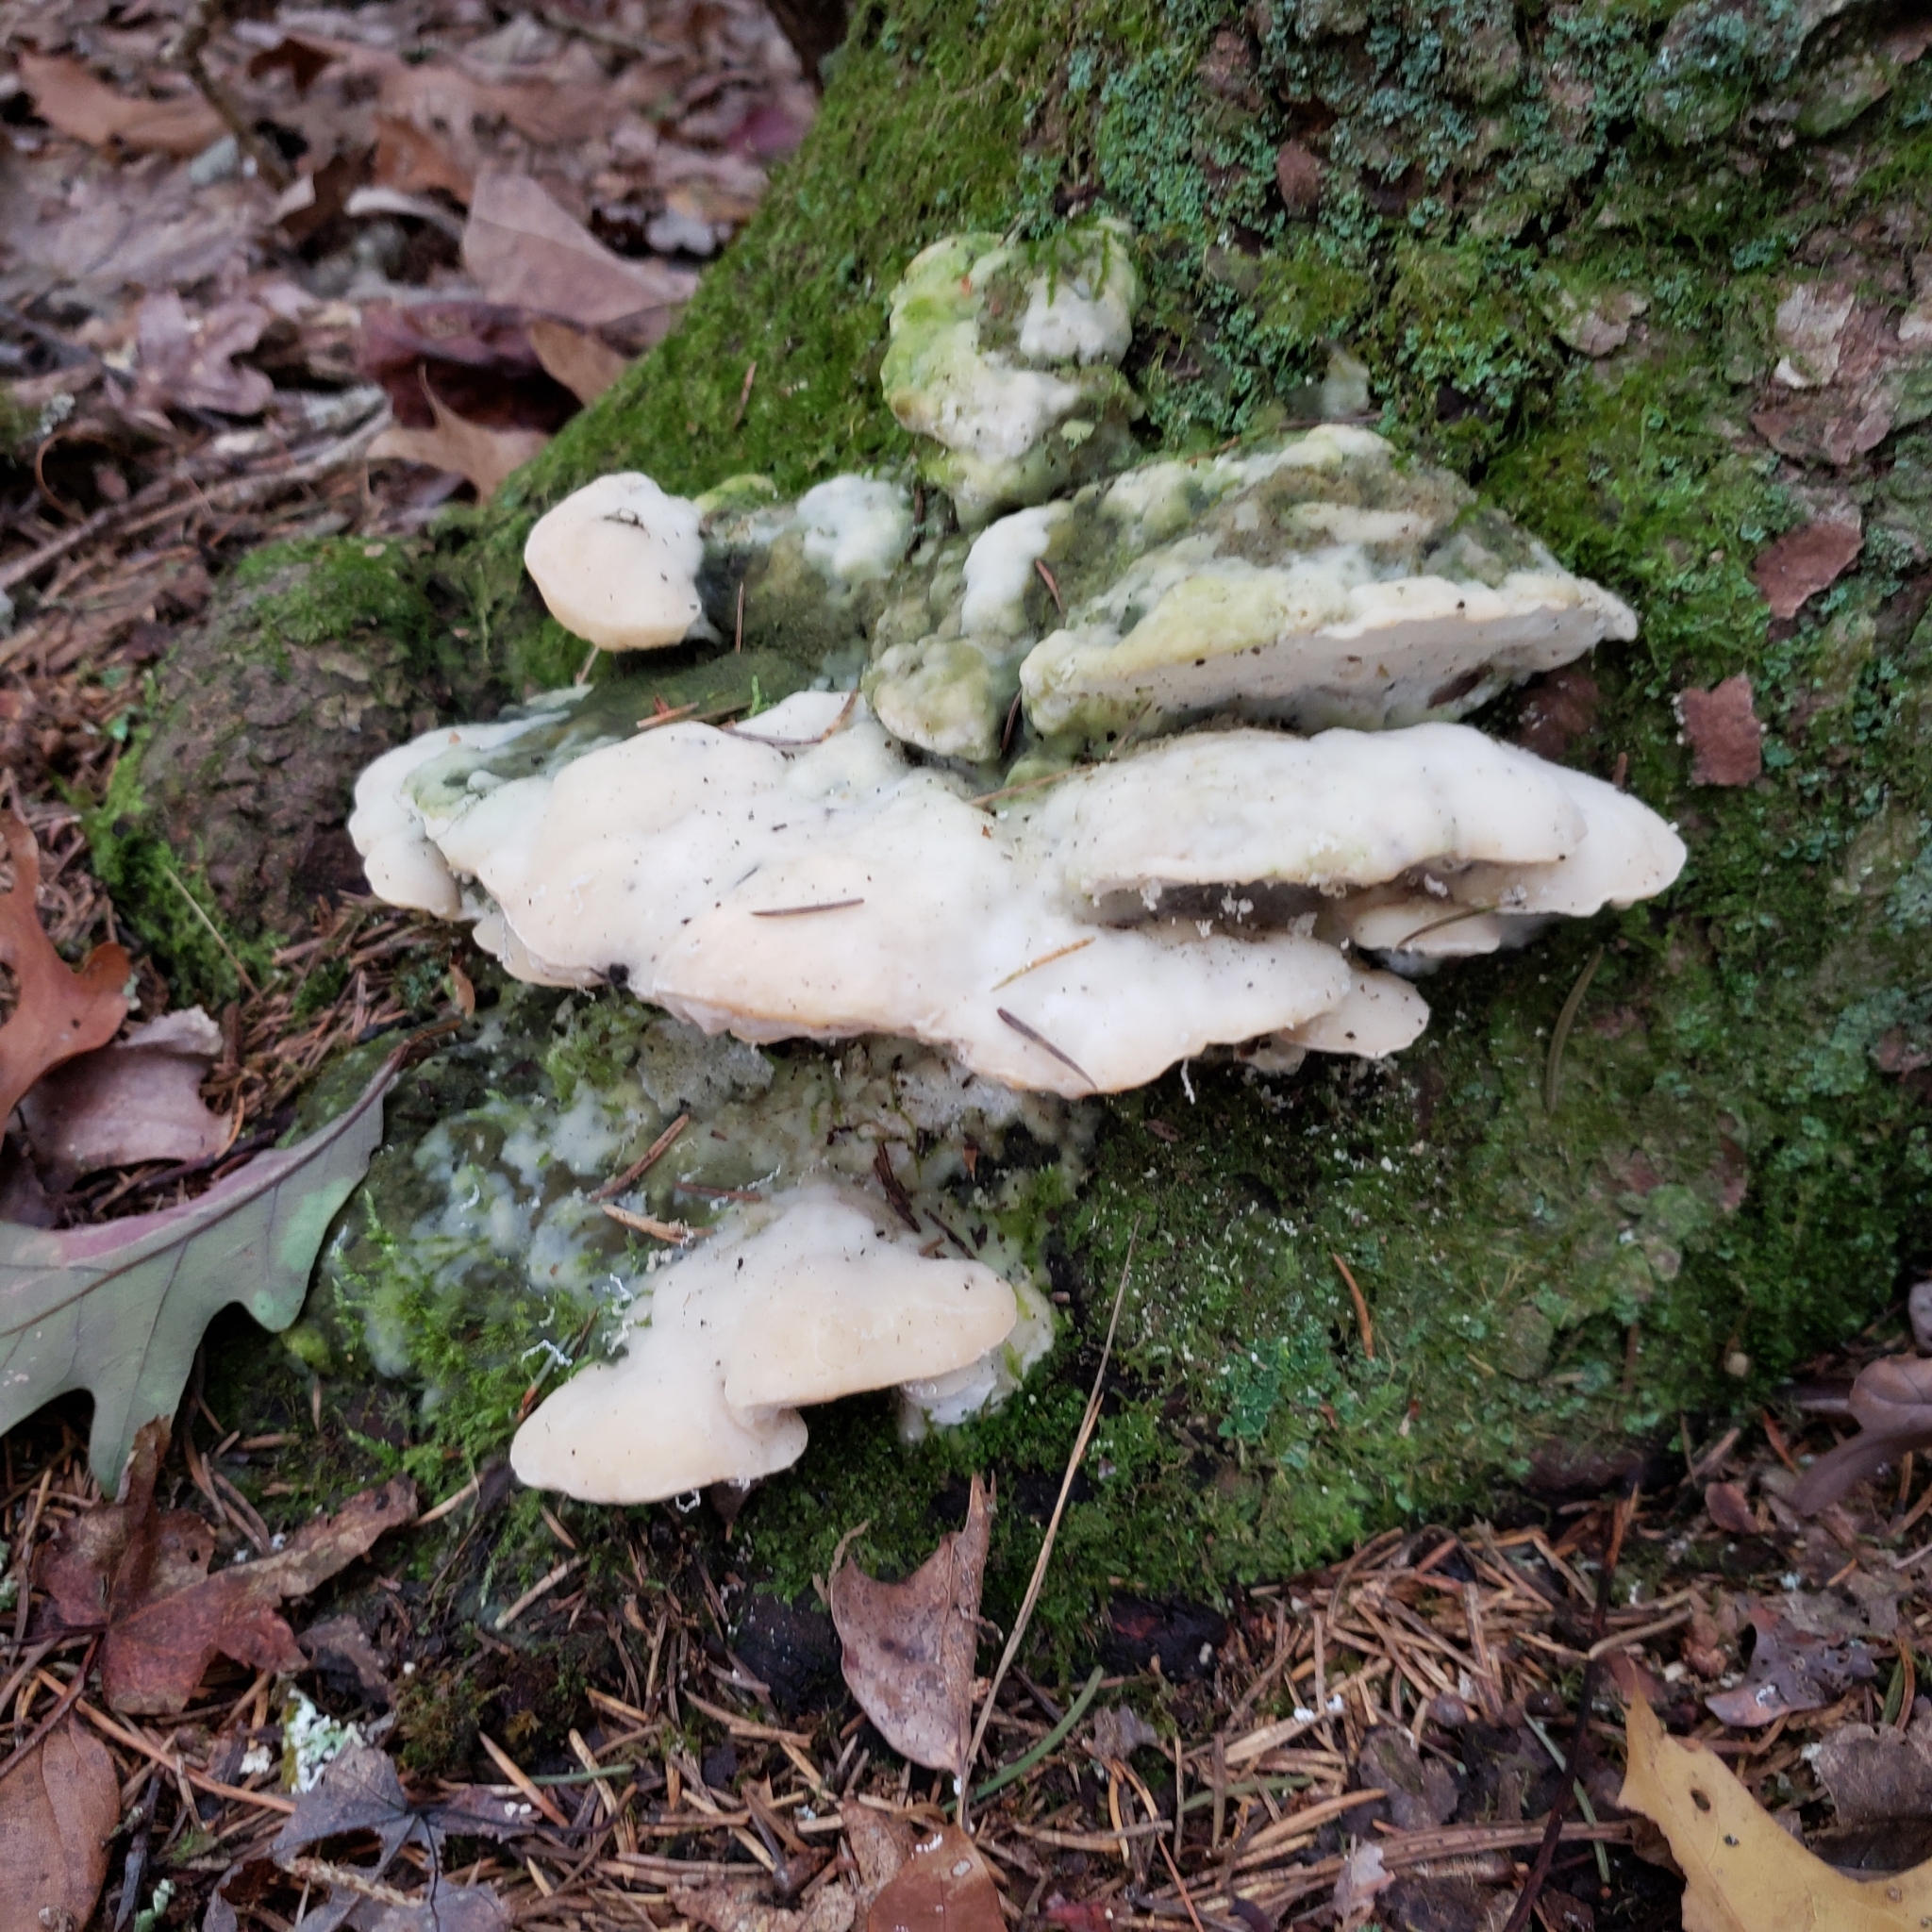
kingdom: Fungi
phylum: Basidiomycota
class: Agaricomycetes
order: Hymenochaetales
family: Oxyporaceae
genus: Oxyporus
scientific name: Oxyporus populinus
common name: Poplar bracket
